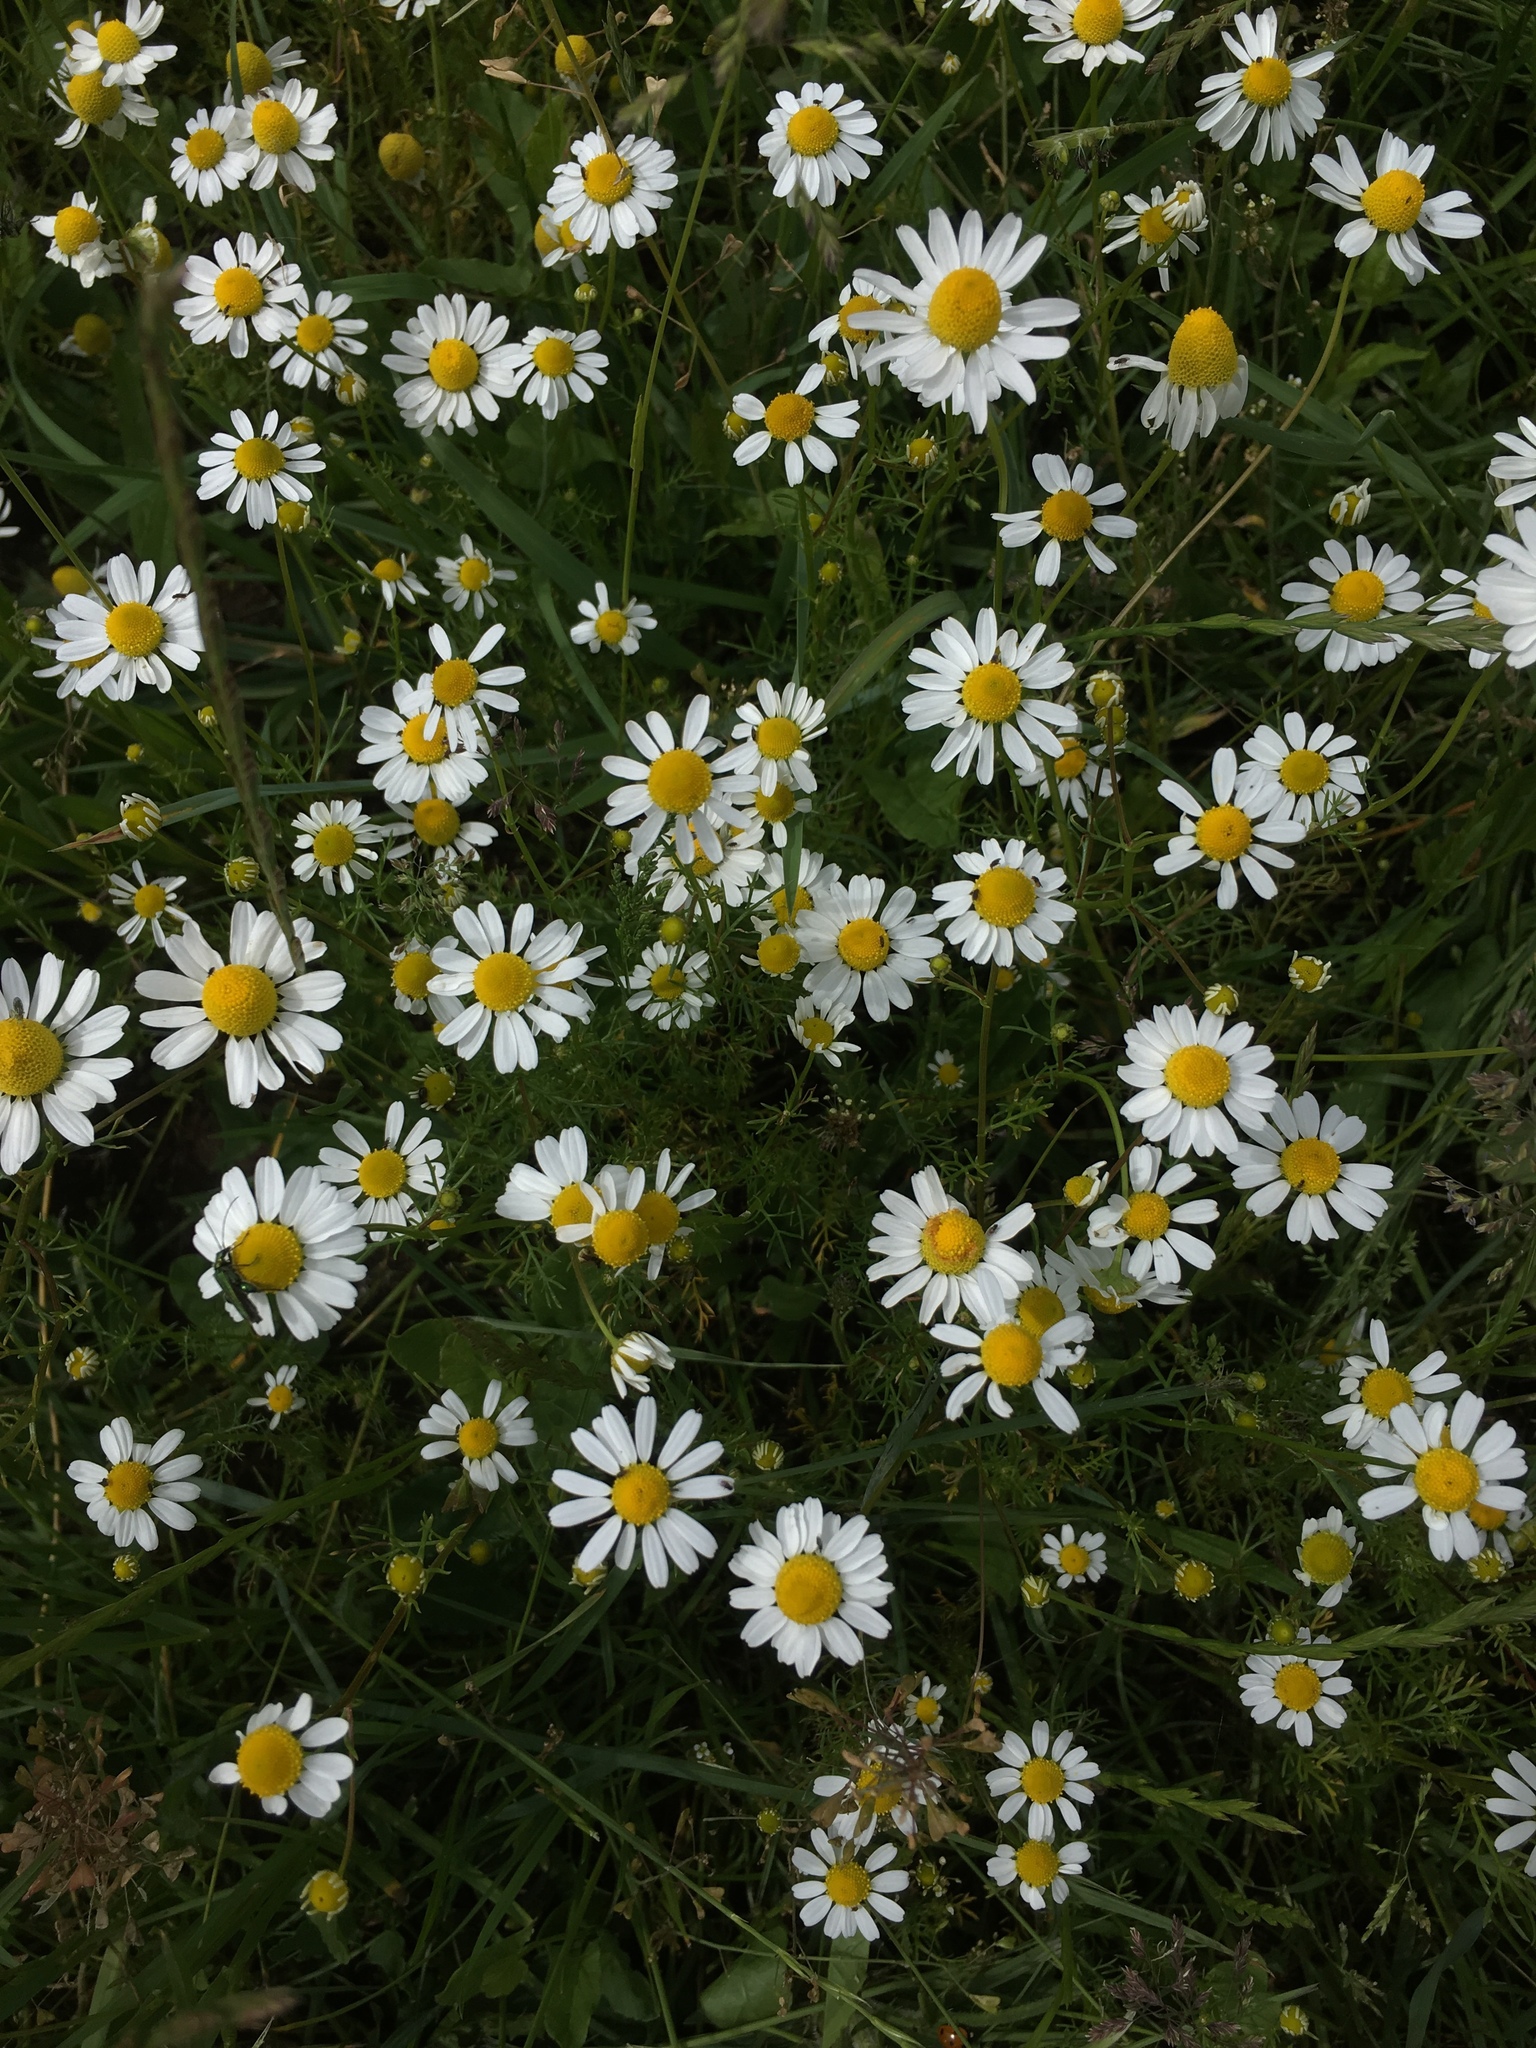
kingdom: Plantae
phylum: Tracheophyta
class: Magnoliopsida
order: Asterales
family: Asteraceae
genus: Matricaria
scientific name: Matricaria chamomilla
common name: Scented mayweed
